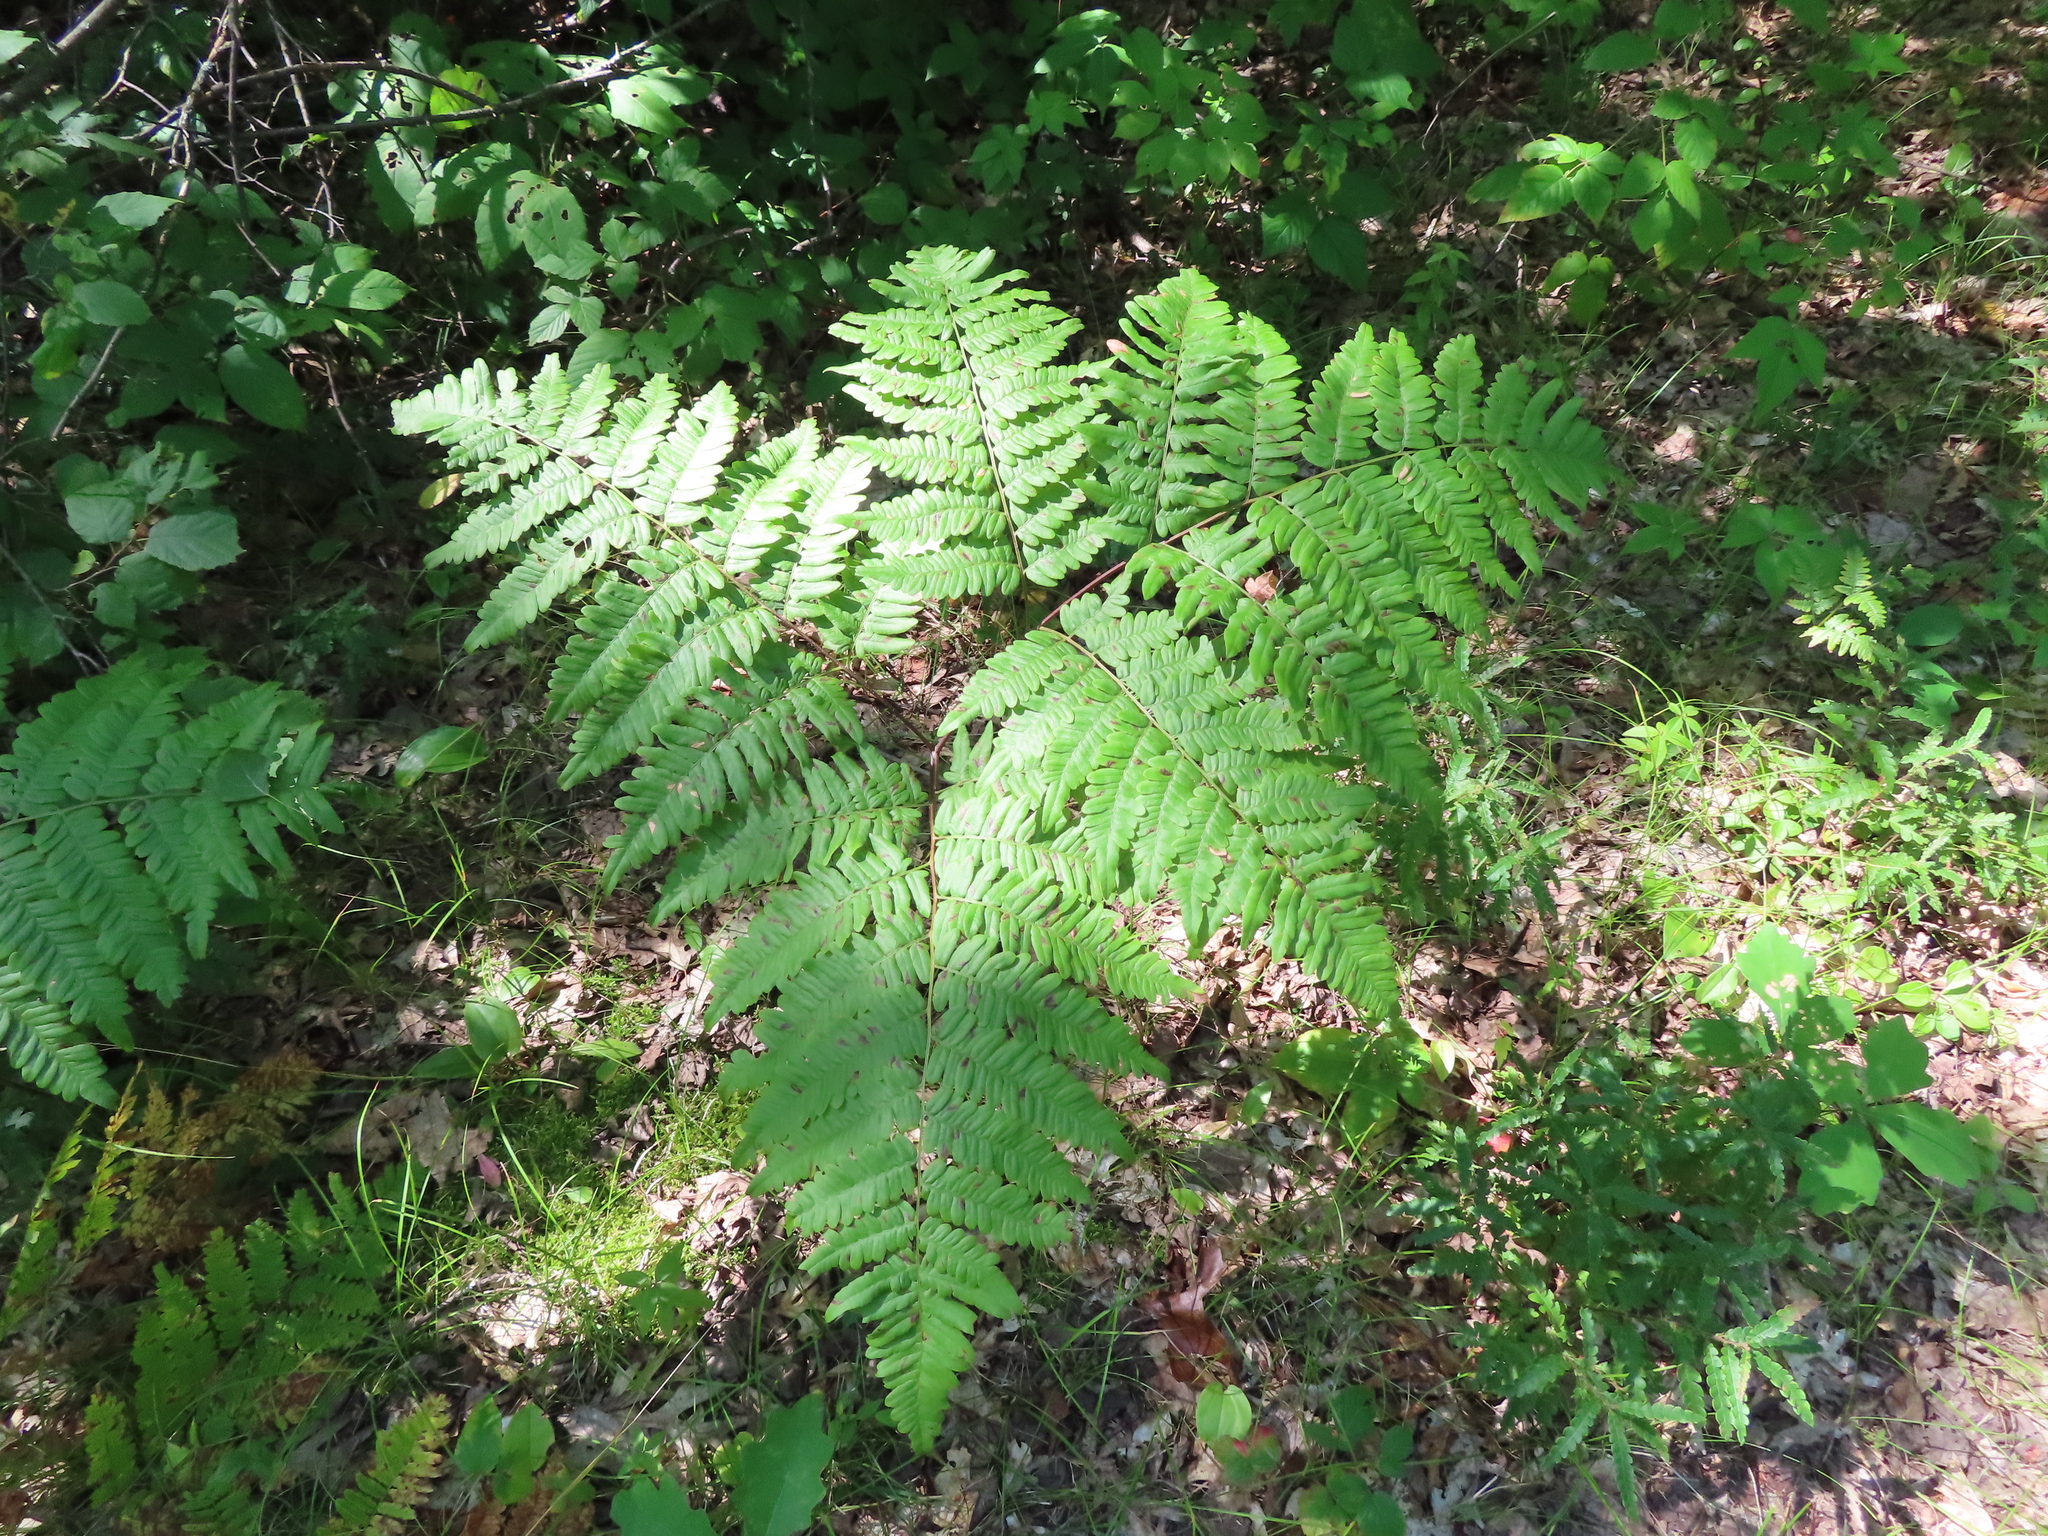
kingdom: Plantae
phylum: Tracheophyta
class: Polypodiopsida
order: Polypodiales
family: Dennstaedtiaceae
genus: Pteridium
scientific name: Pteridium aquilinum
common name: Bracken
